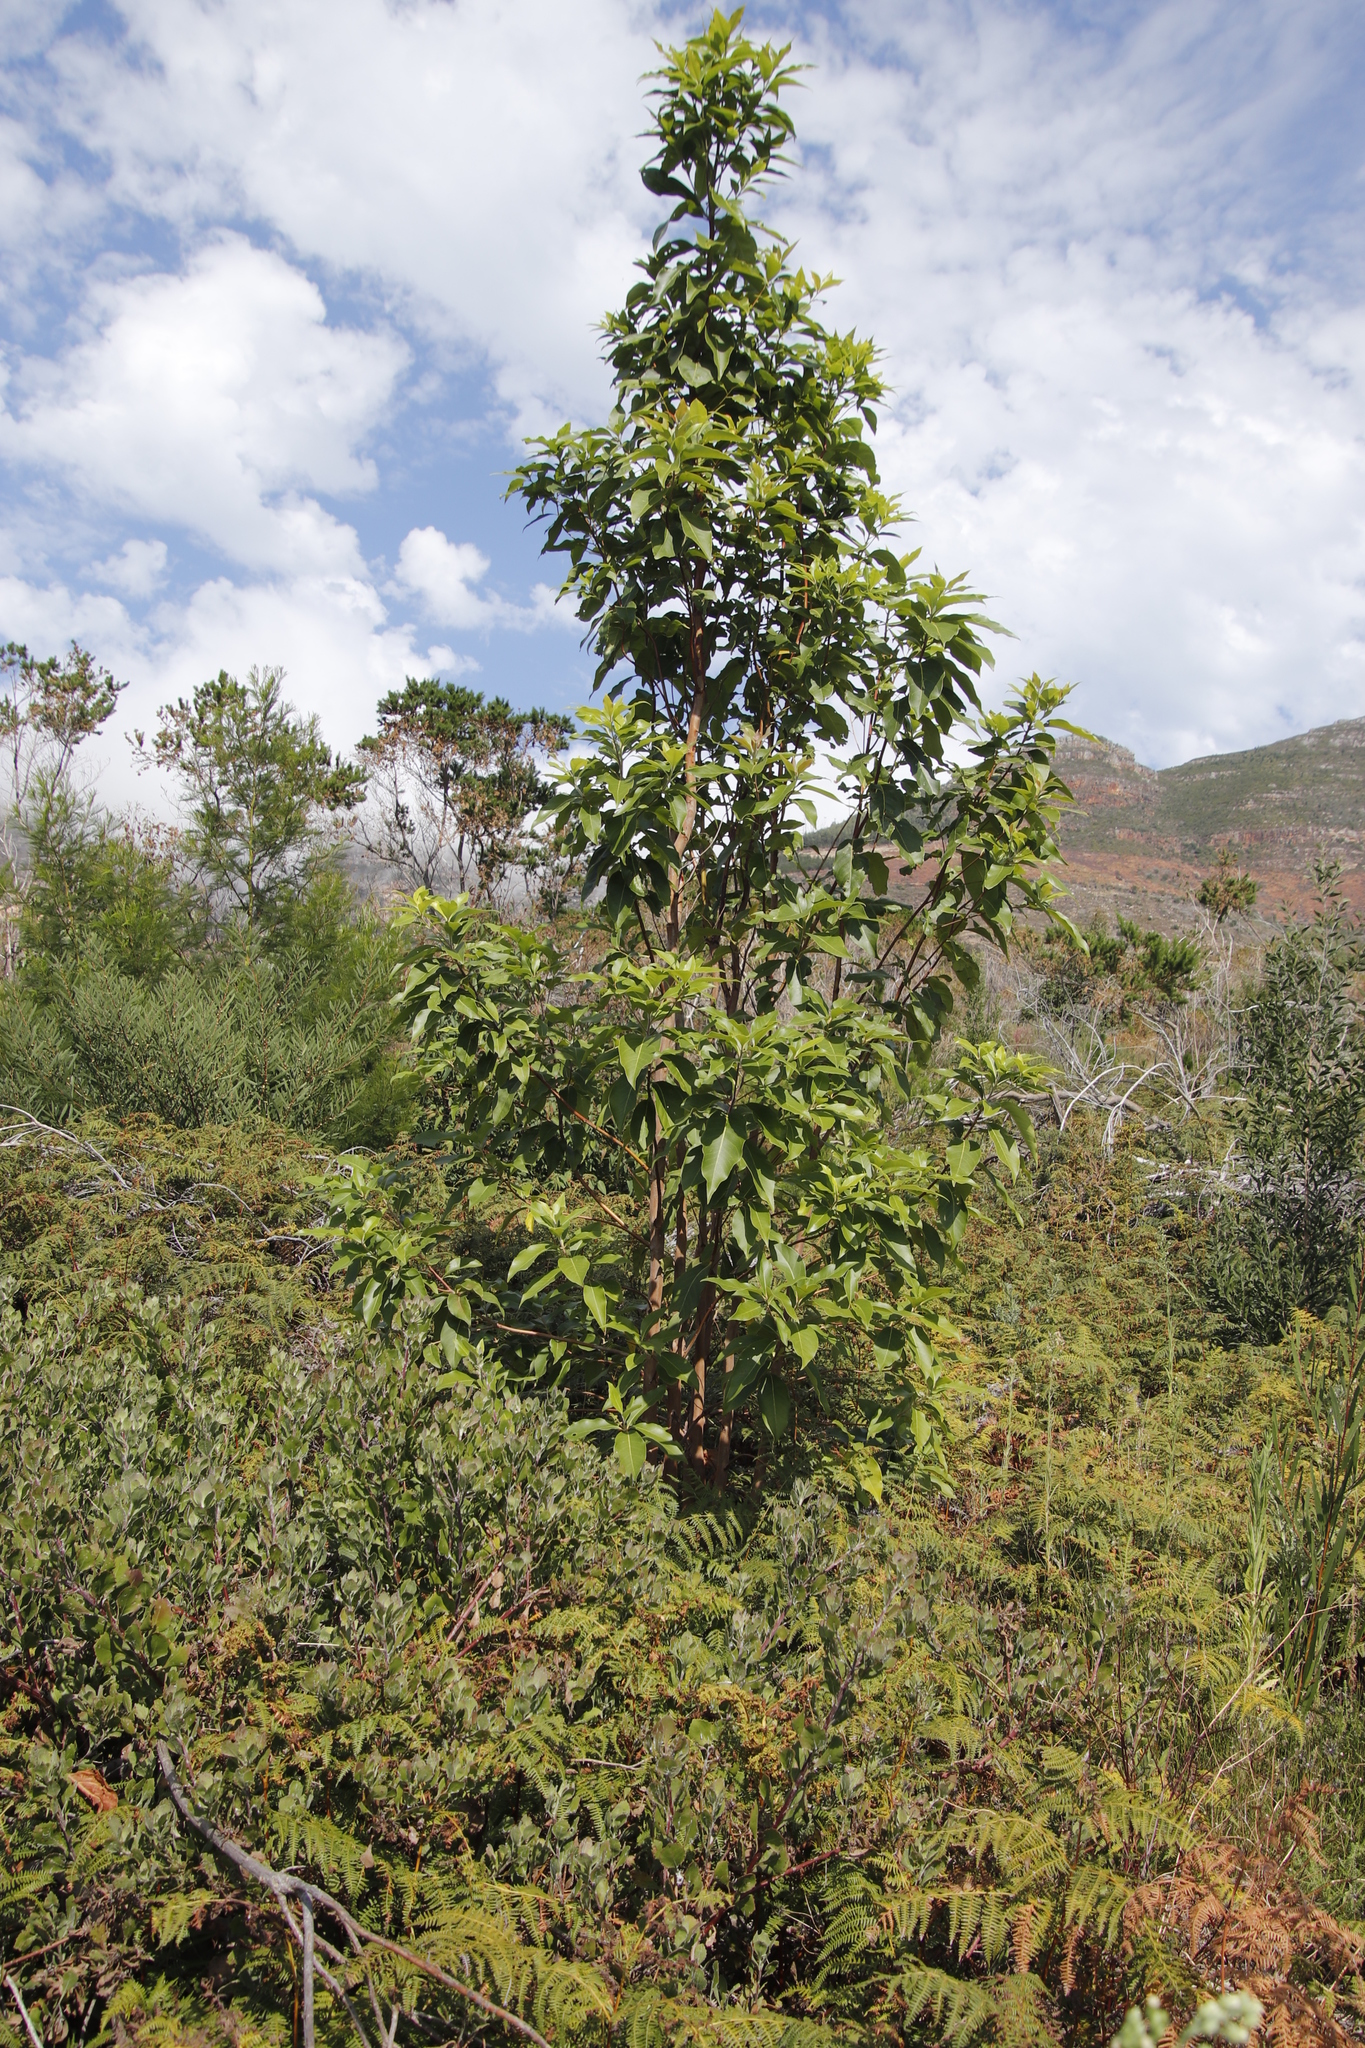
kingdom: Plantae
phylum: Tracheophyta
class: Magnoliopsida
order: Myrtales
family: Myrtaceae
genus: Lophostemon
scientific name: Lophostemon confertus
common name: Brisbane box
